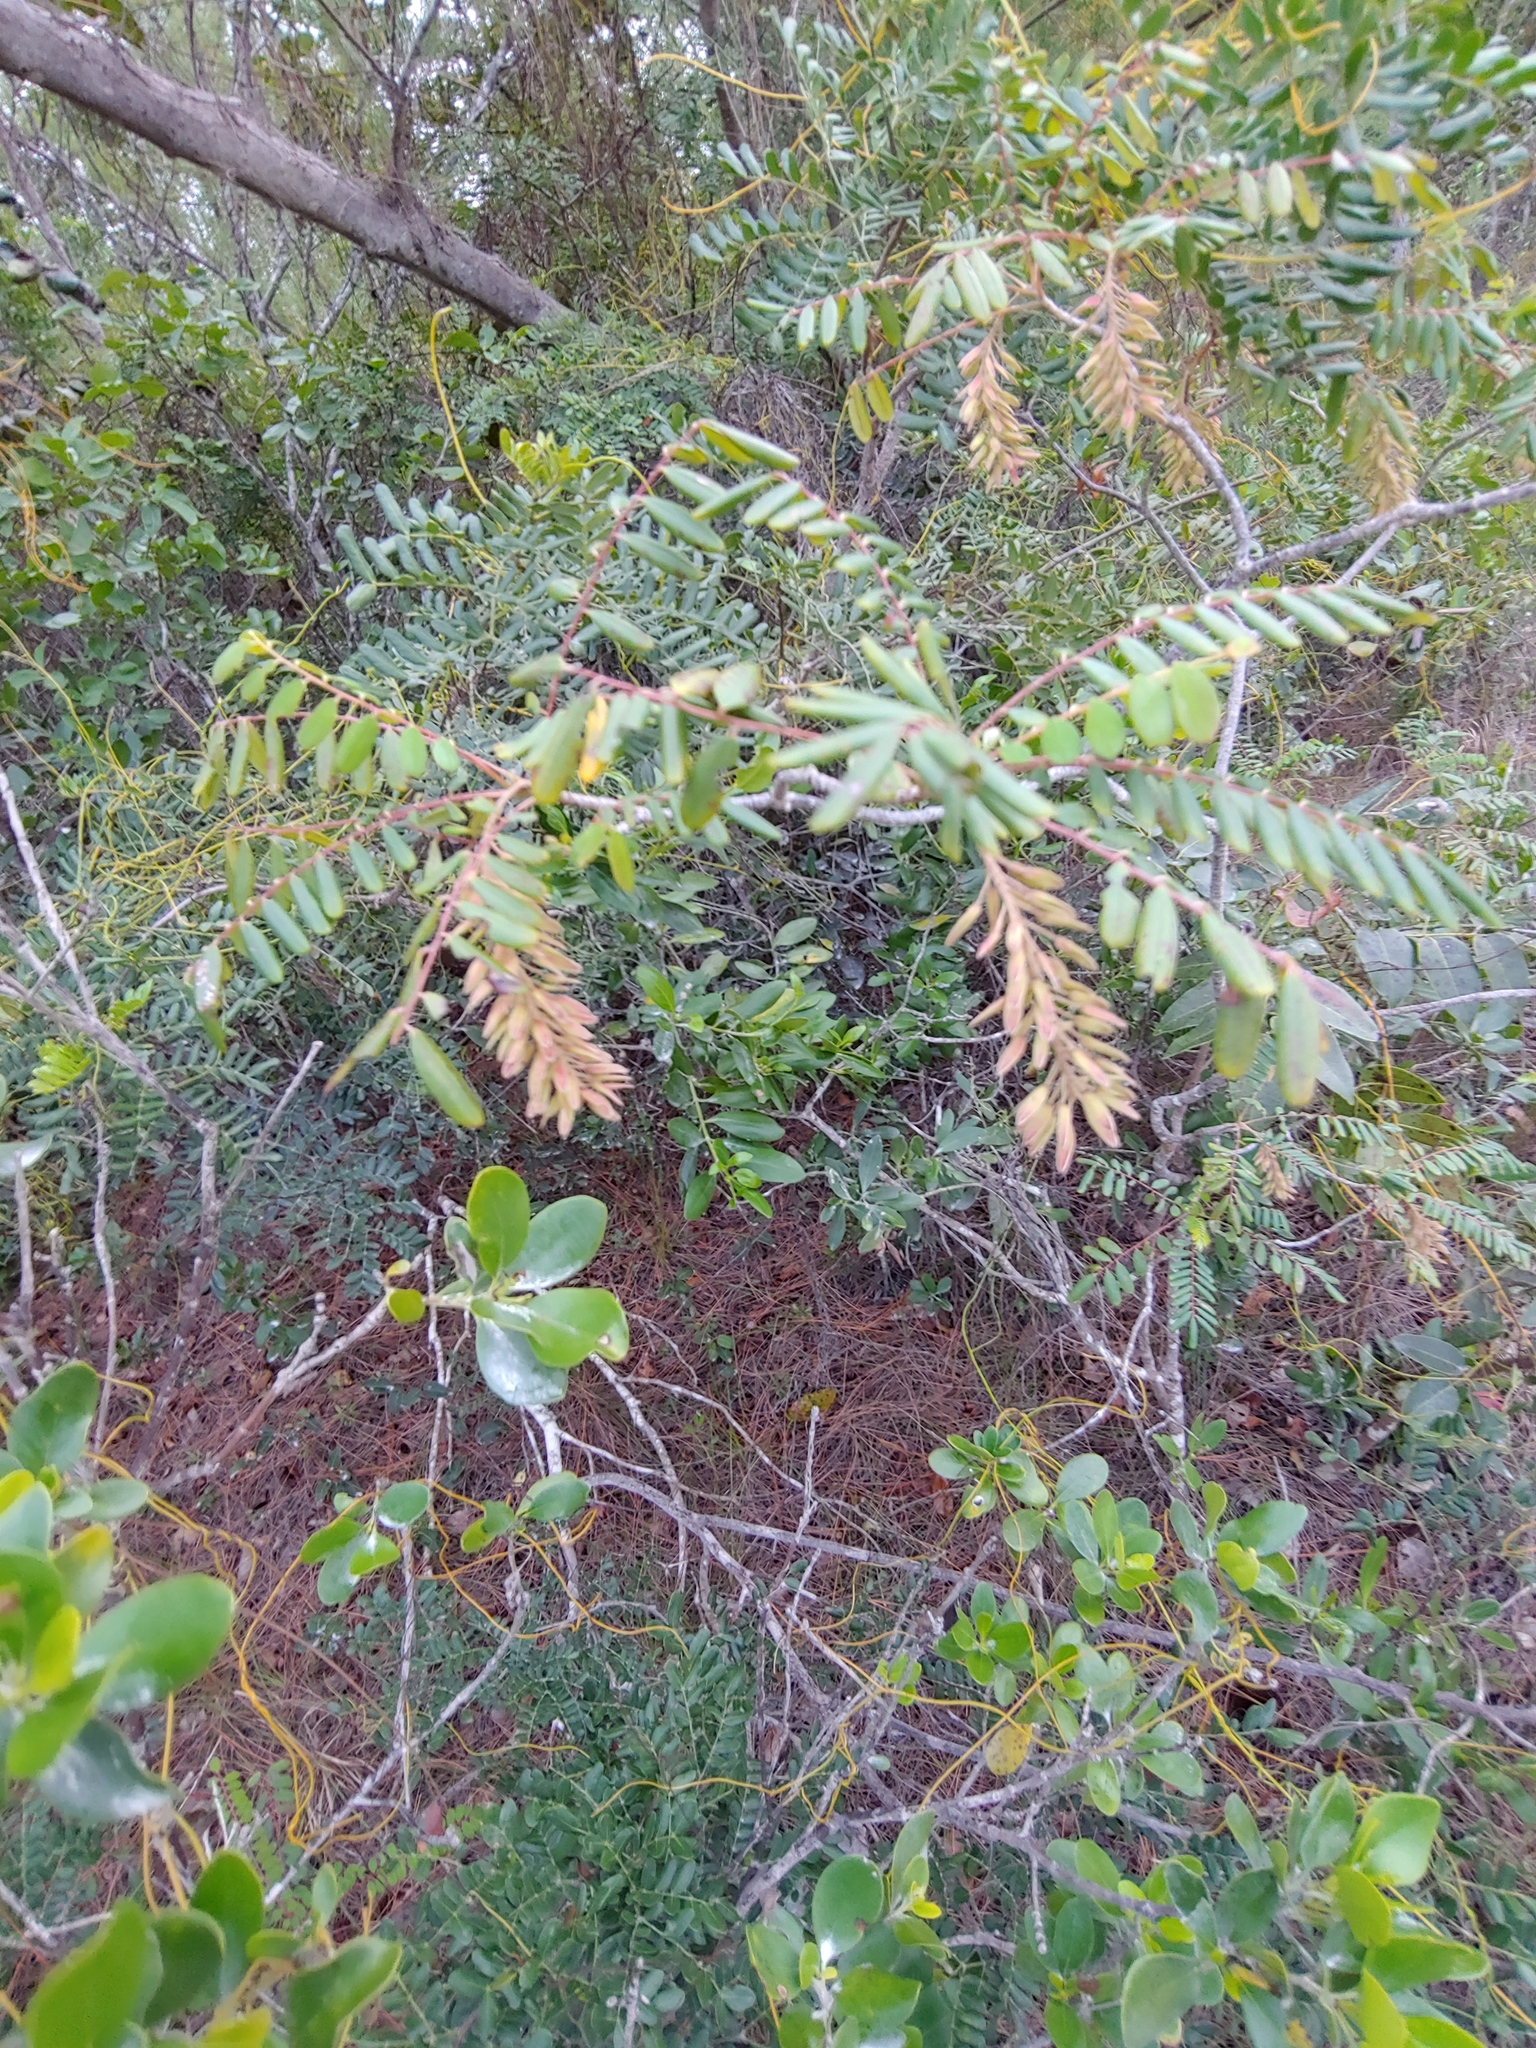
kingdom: Plantae
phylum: Tracheophyta
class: Magnoliopsida
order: Picramniales
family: Picramniaceae
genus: Alvaradoa
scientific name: Alvaradoa amorphoides
